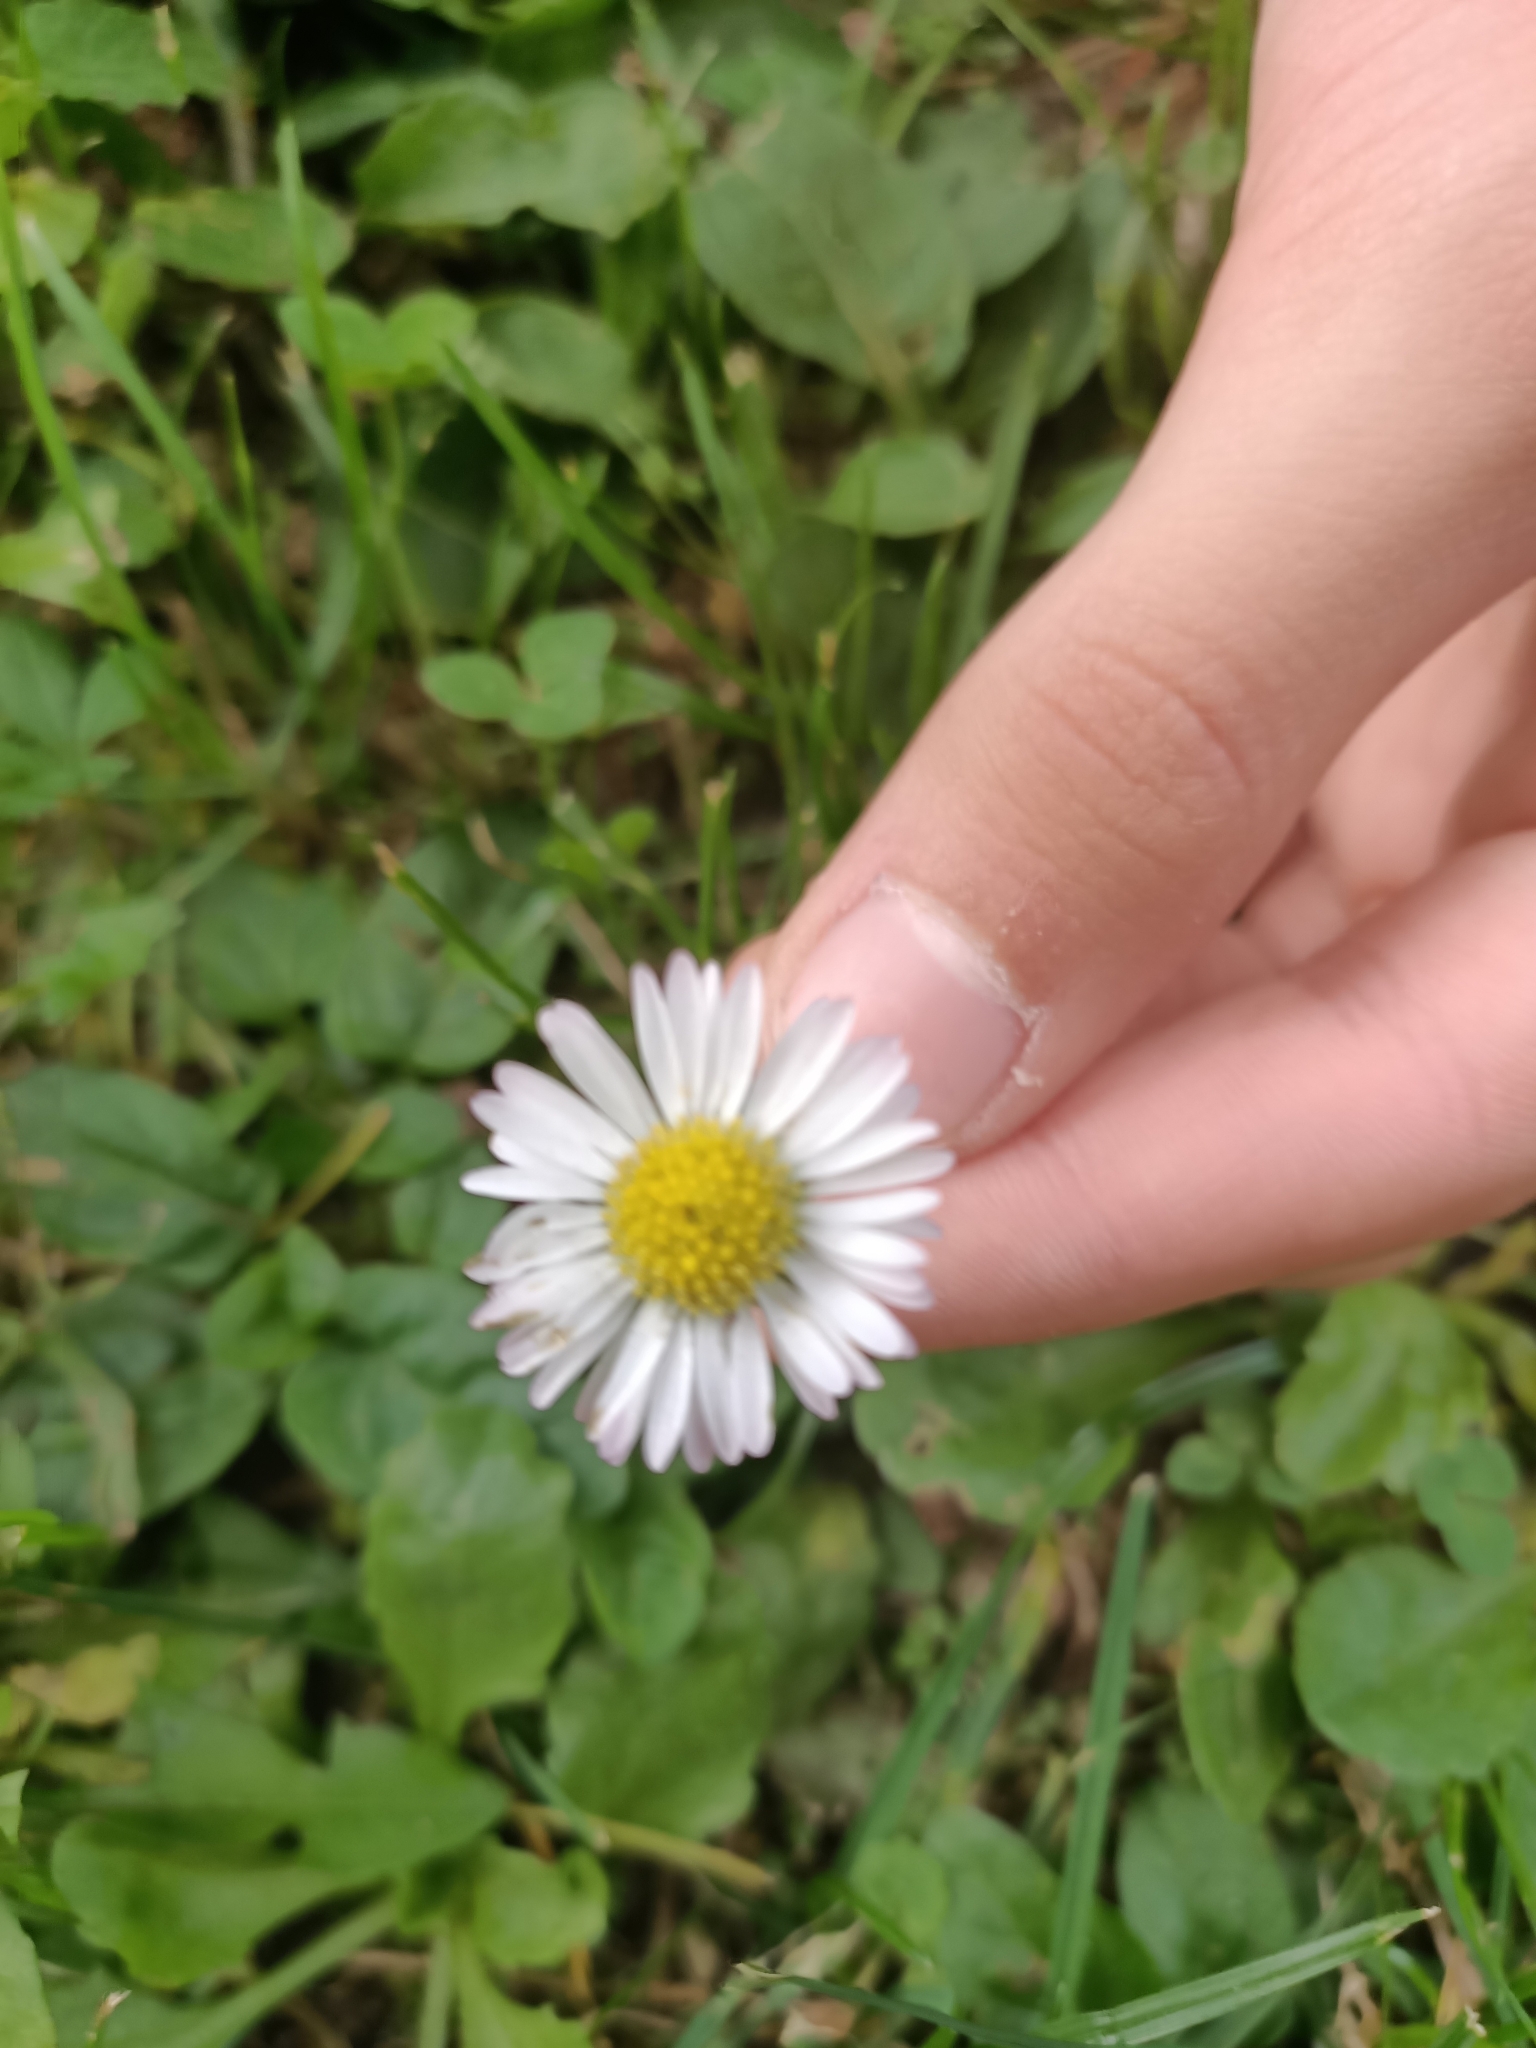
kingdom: Plantae
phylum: Tracheophyta
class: Magnoliopsida
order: Asterales
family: Asteraceae
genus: Bellis
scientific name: Bellis perennis
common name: Lawndaisy
